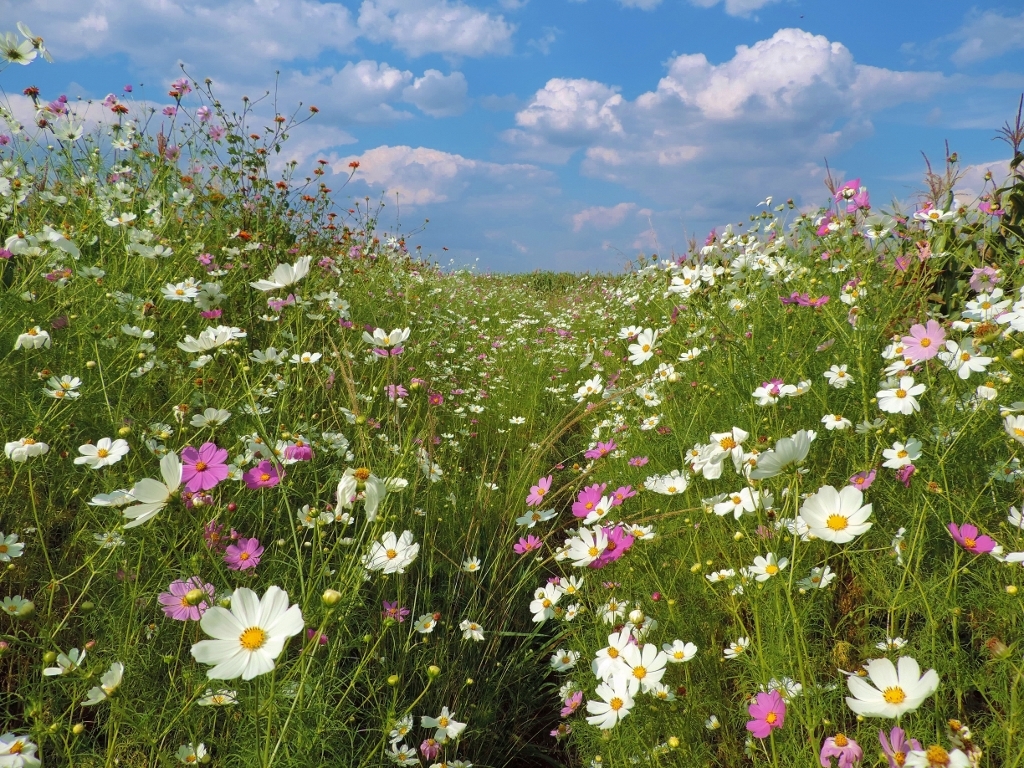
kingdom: Plantae
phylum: Tracheophyta
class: Magnoliopsida
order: Asterales
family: Asteraceae
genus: Cosmos
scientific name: Cosmos bipinnatus
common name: Garden cosmos
